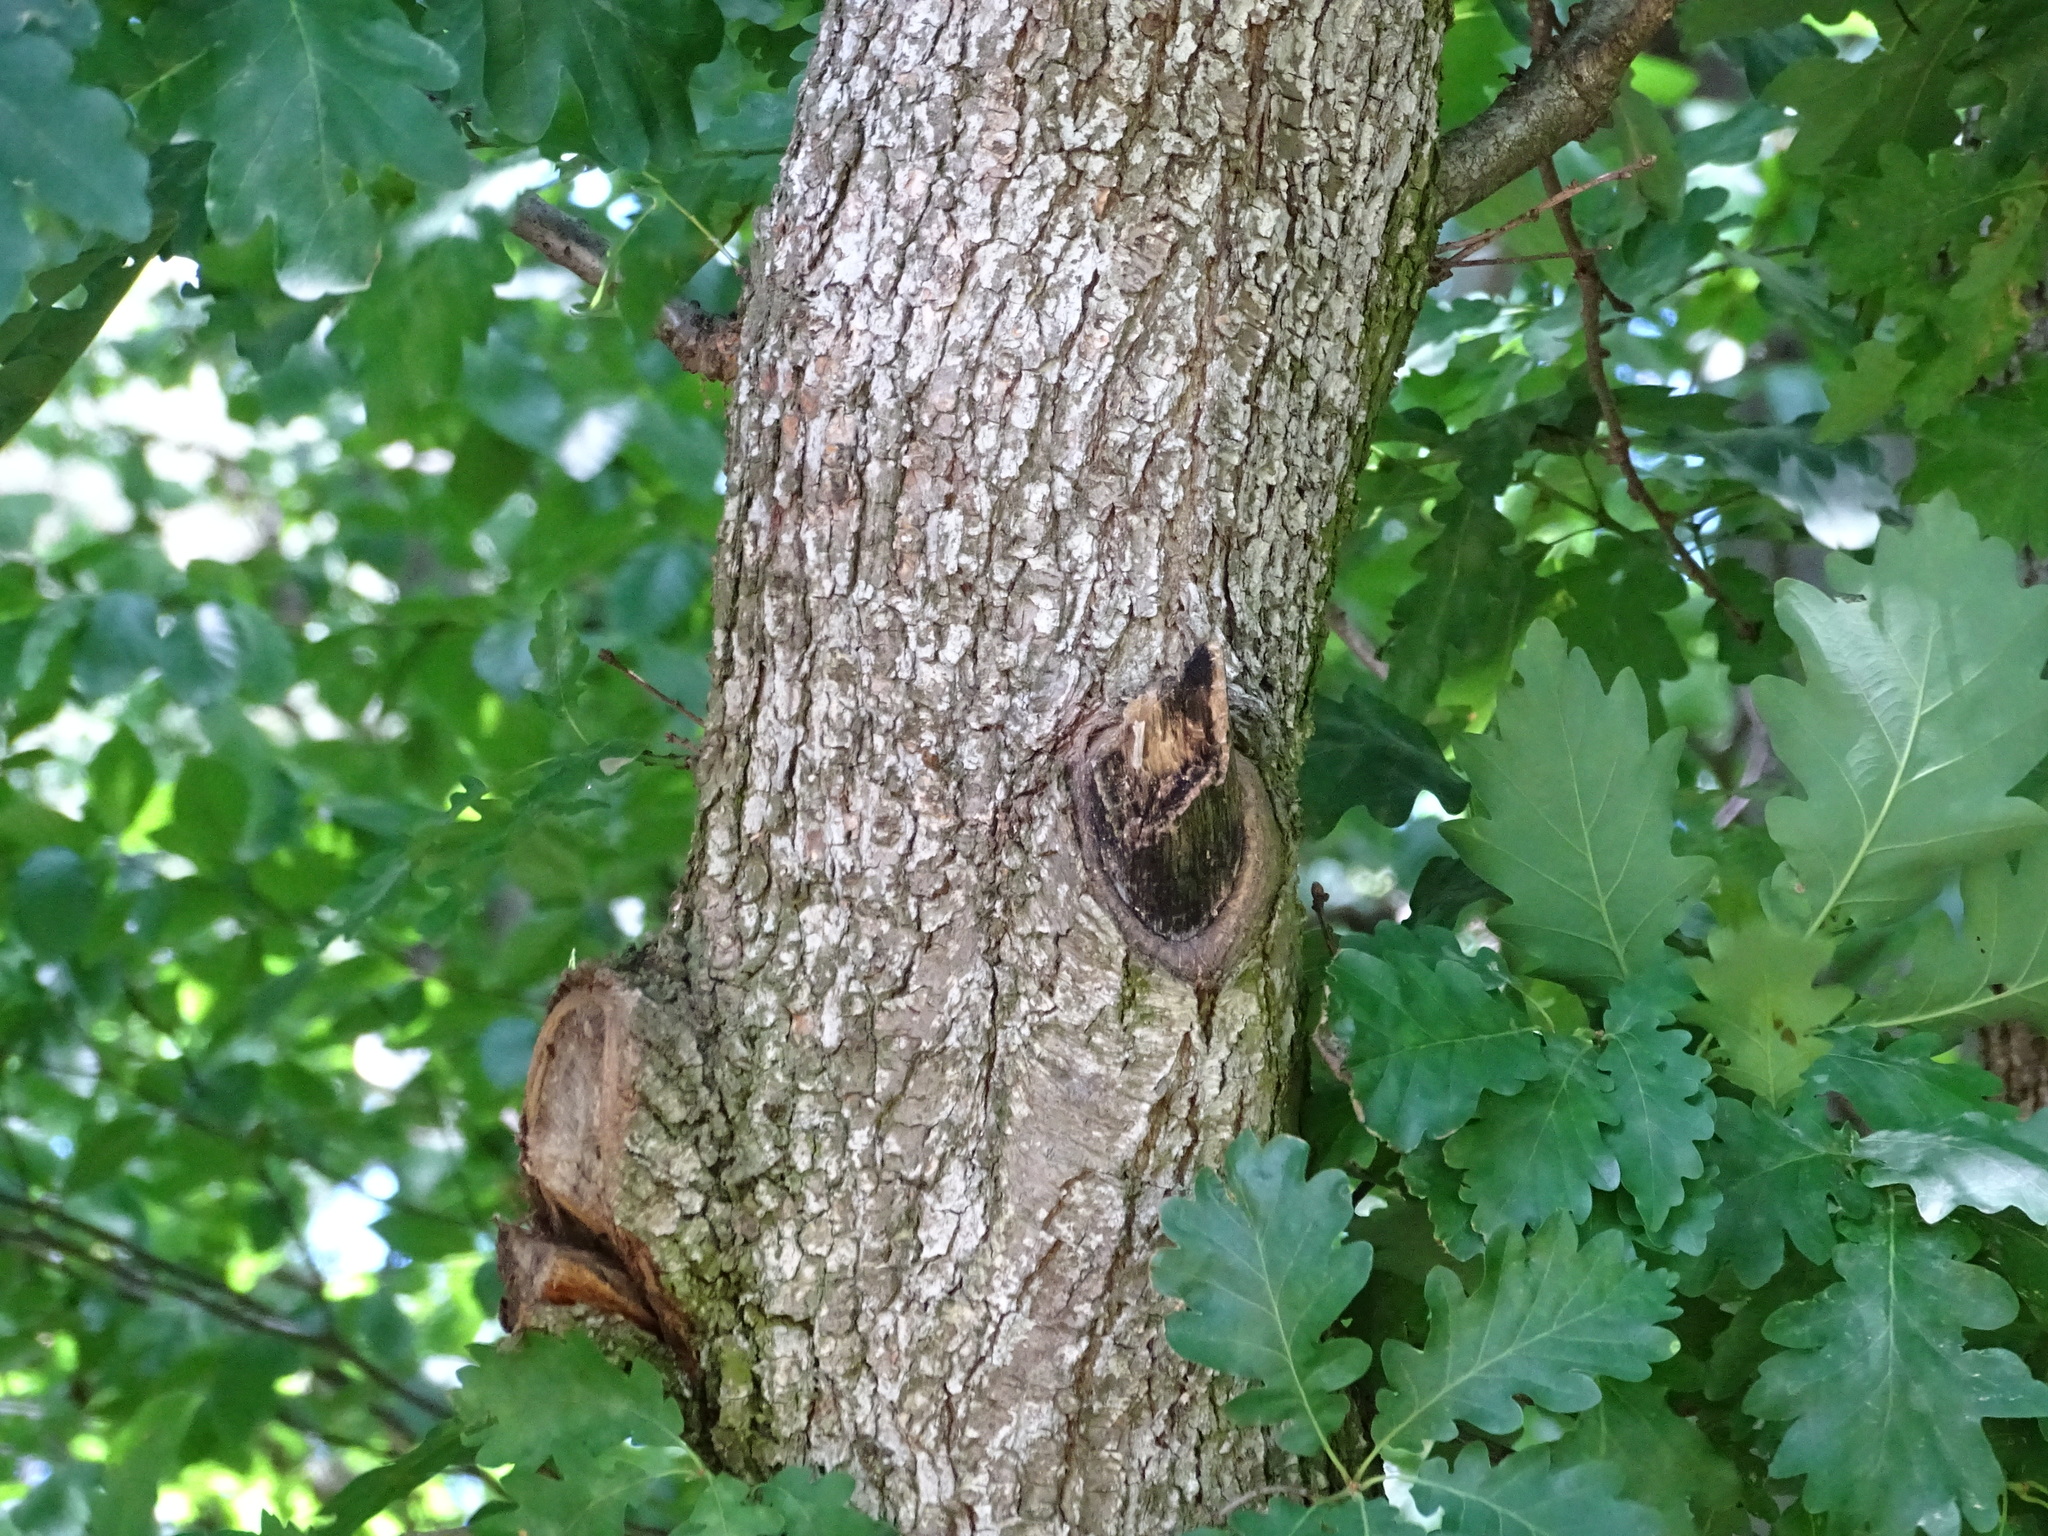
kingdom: Plantae
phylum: Tracheophyta
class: Magnoliopsida
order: Fagales
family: Fagaceae
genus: Quercus
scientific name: Quercus petraea
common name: Sessile oak
